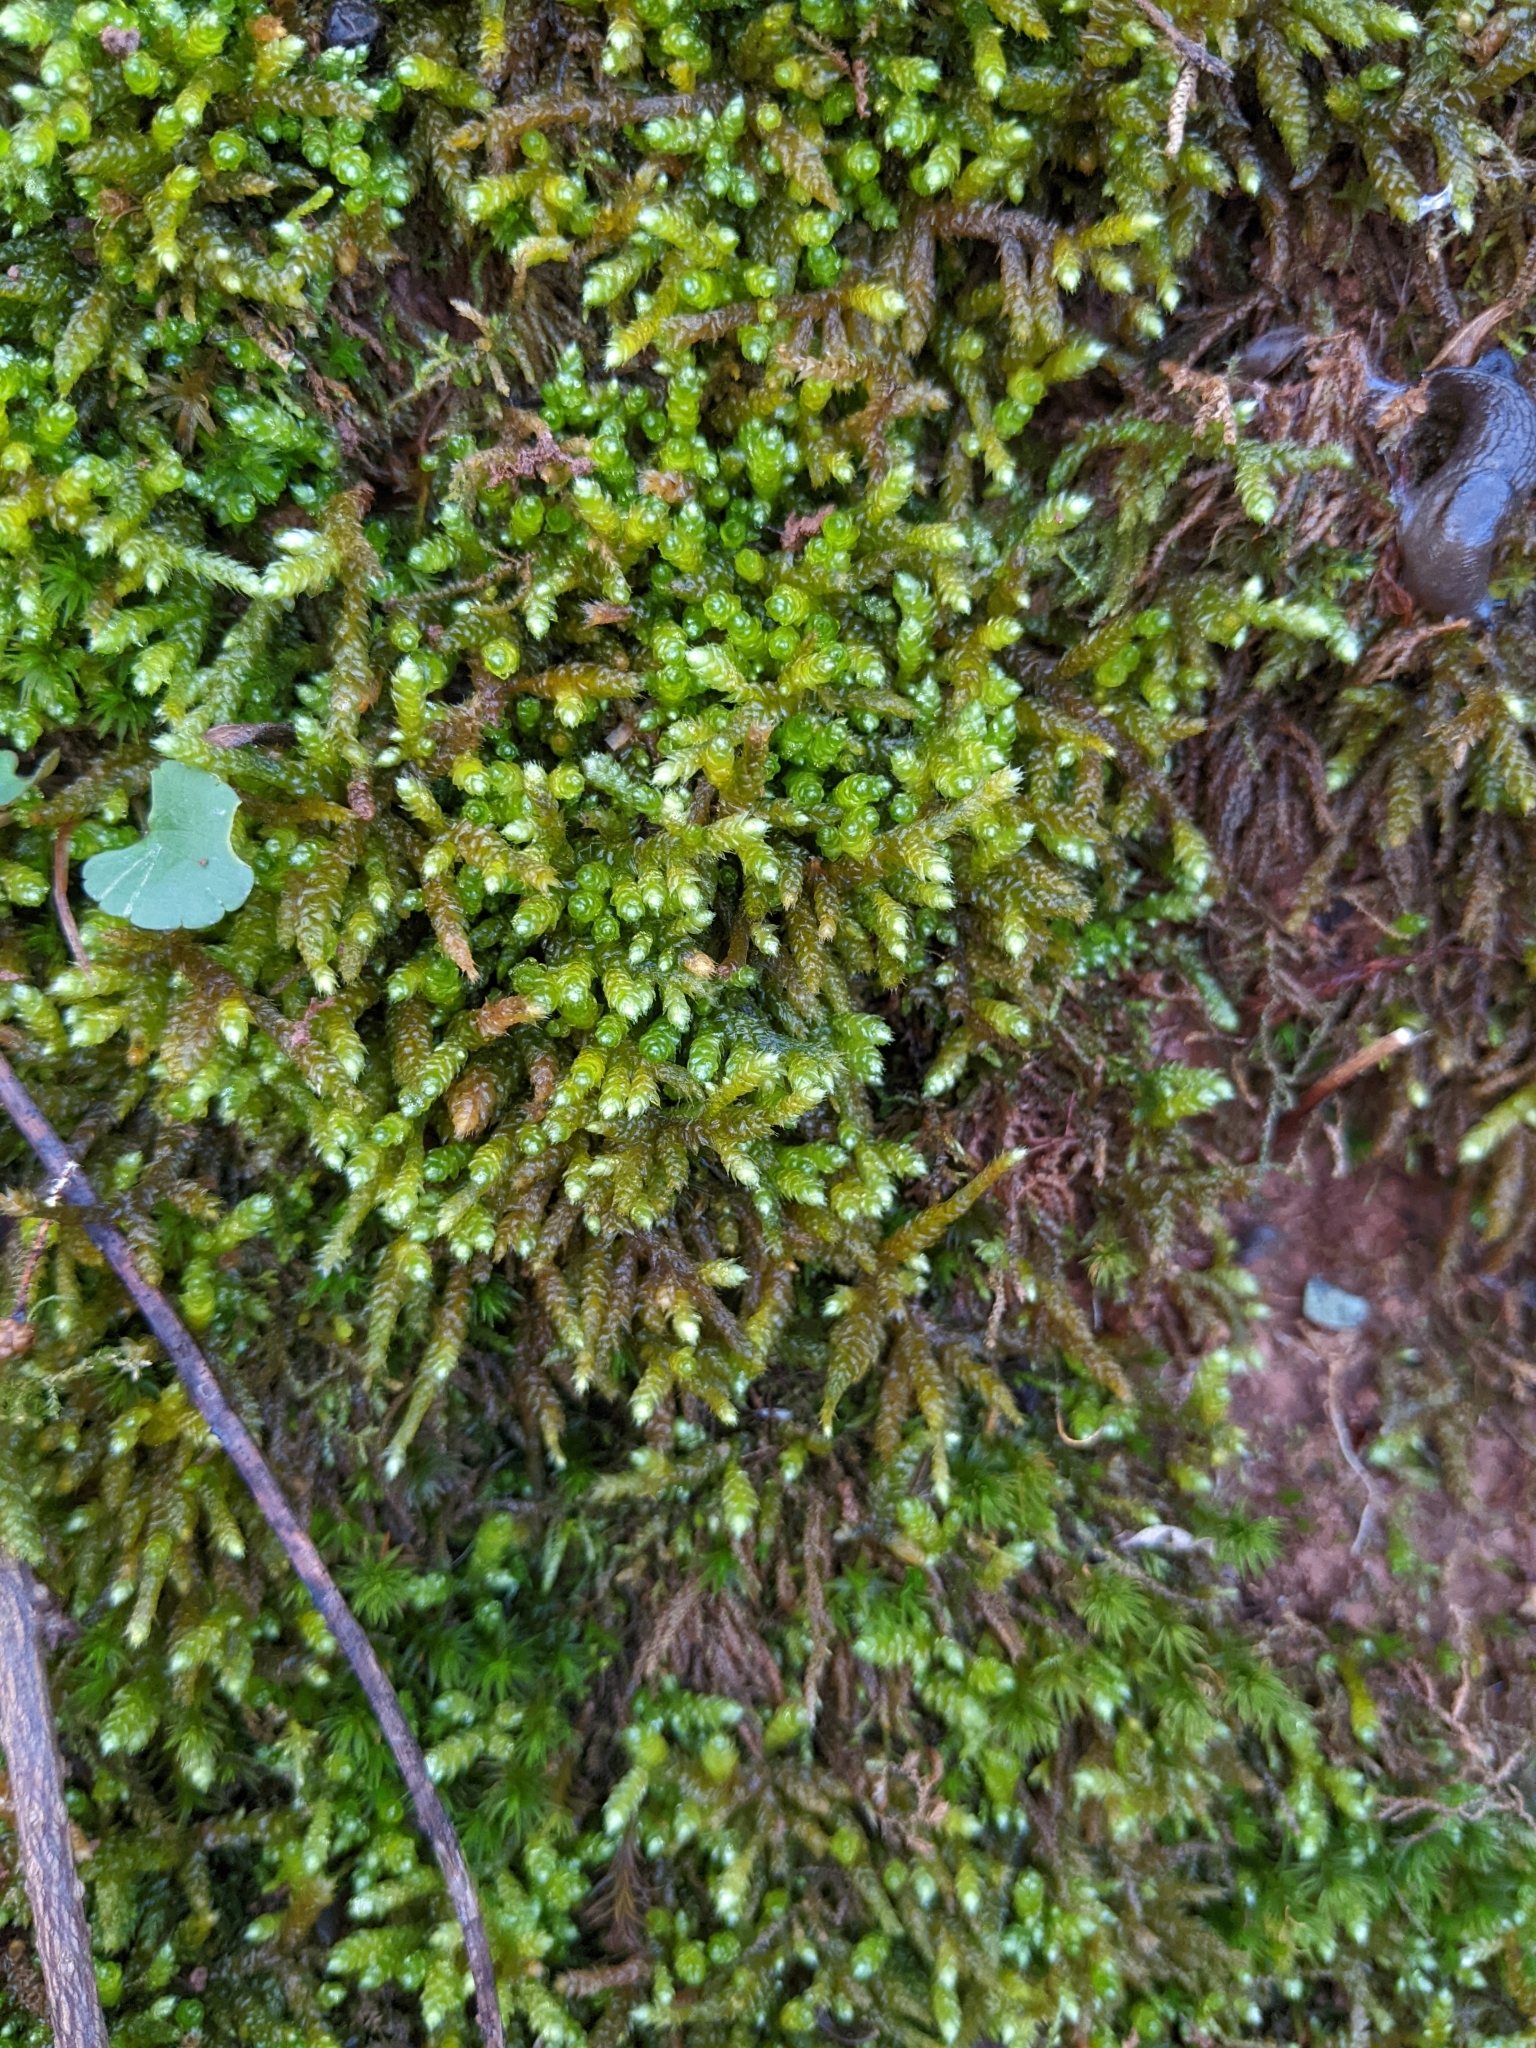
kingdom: Plantae
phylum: Bryophyta
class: Bryopsida
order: Hypnales
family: Brachytheciaceae
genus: Bryoandersonia
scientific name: Bryoandersonia illecebra
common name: Spoon-leaved moss
